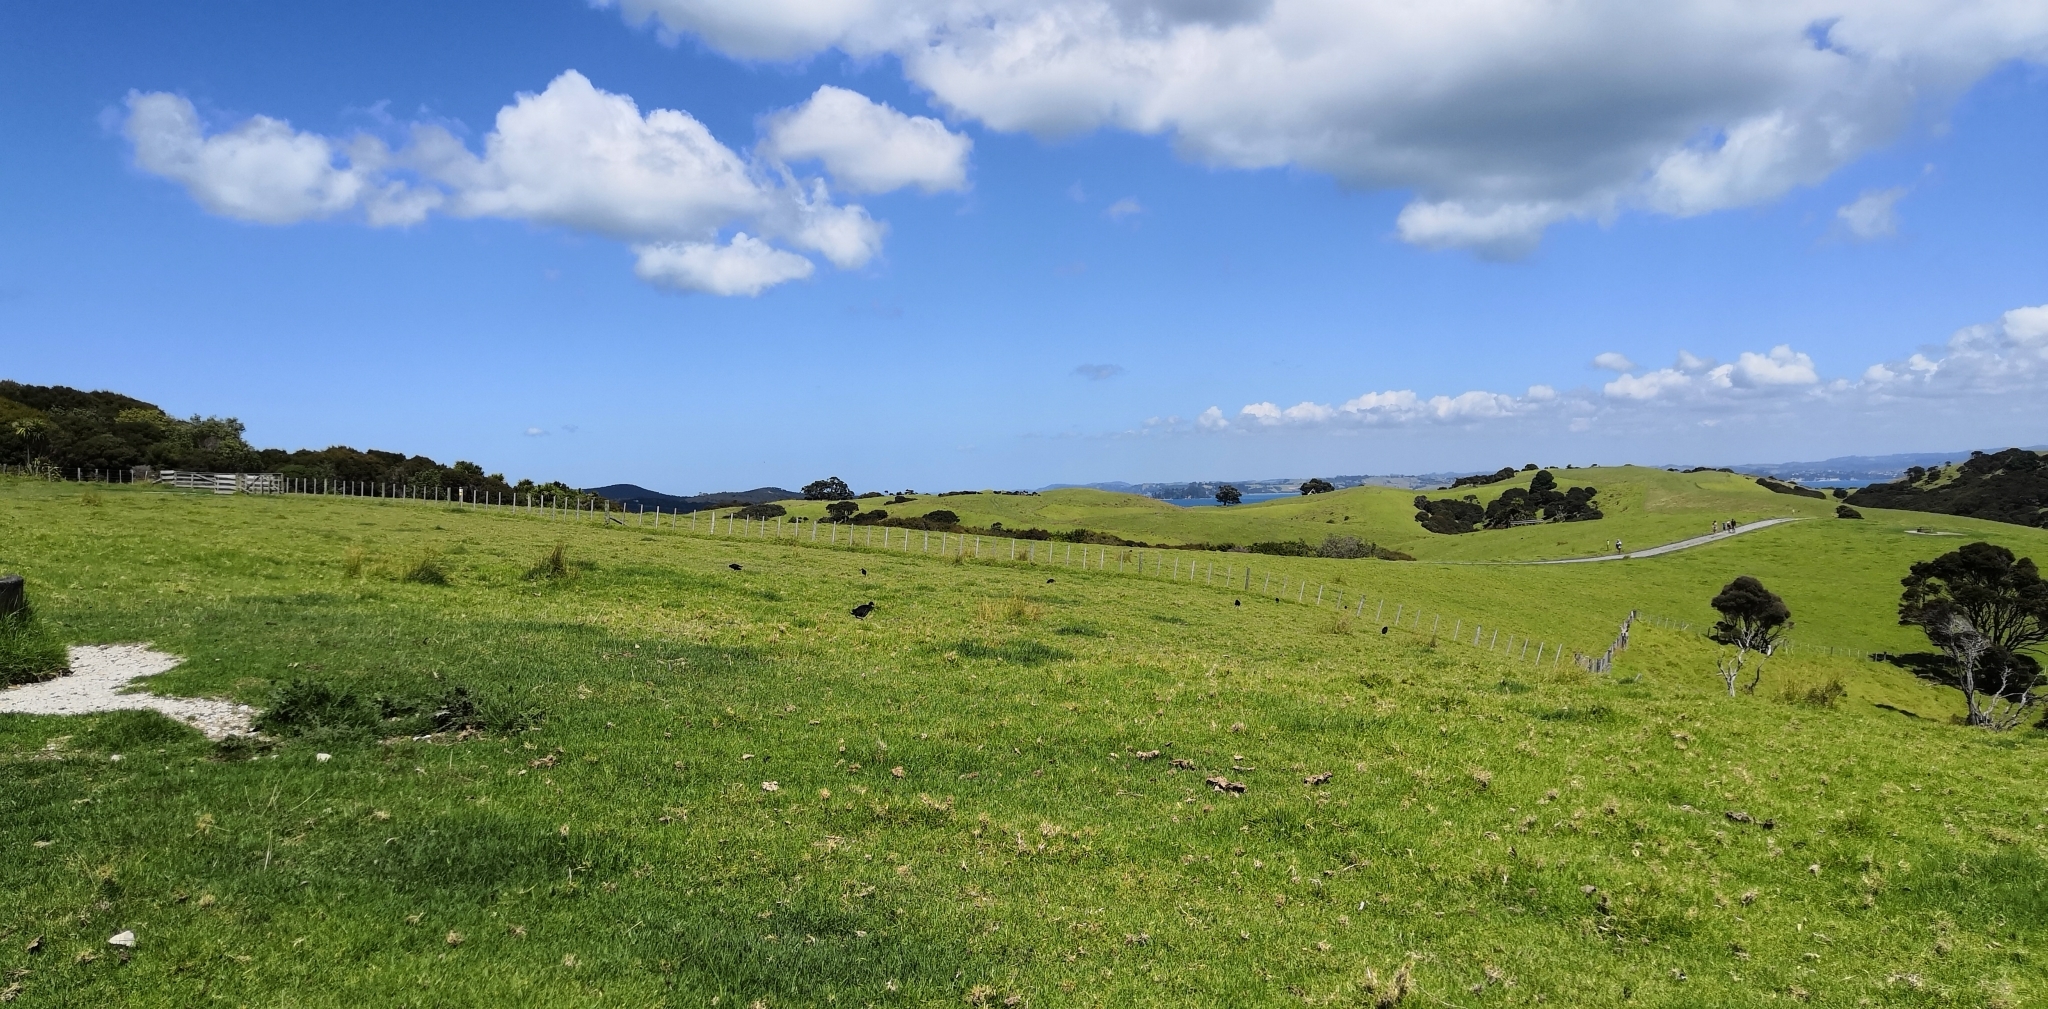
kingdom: Animalia
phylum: Chordata
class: Aves
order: Gruiformes
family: Rallidae
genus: Porphyrio
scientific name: Porphyrio melanotus
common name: Australasian swamphen
